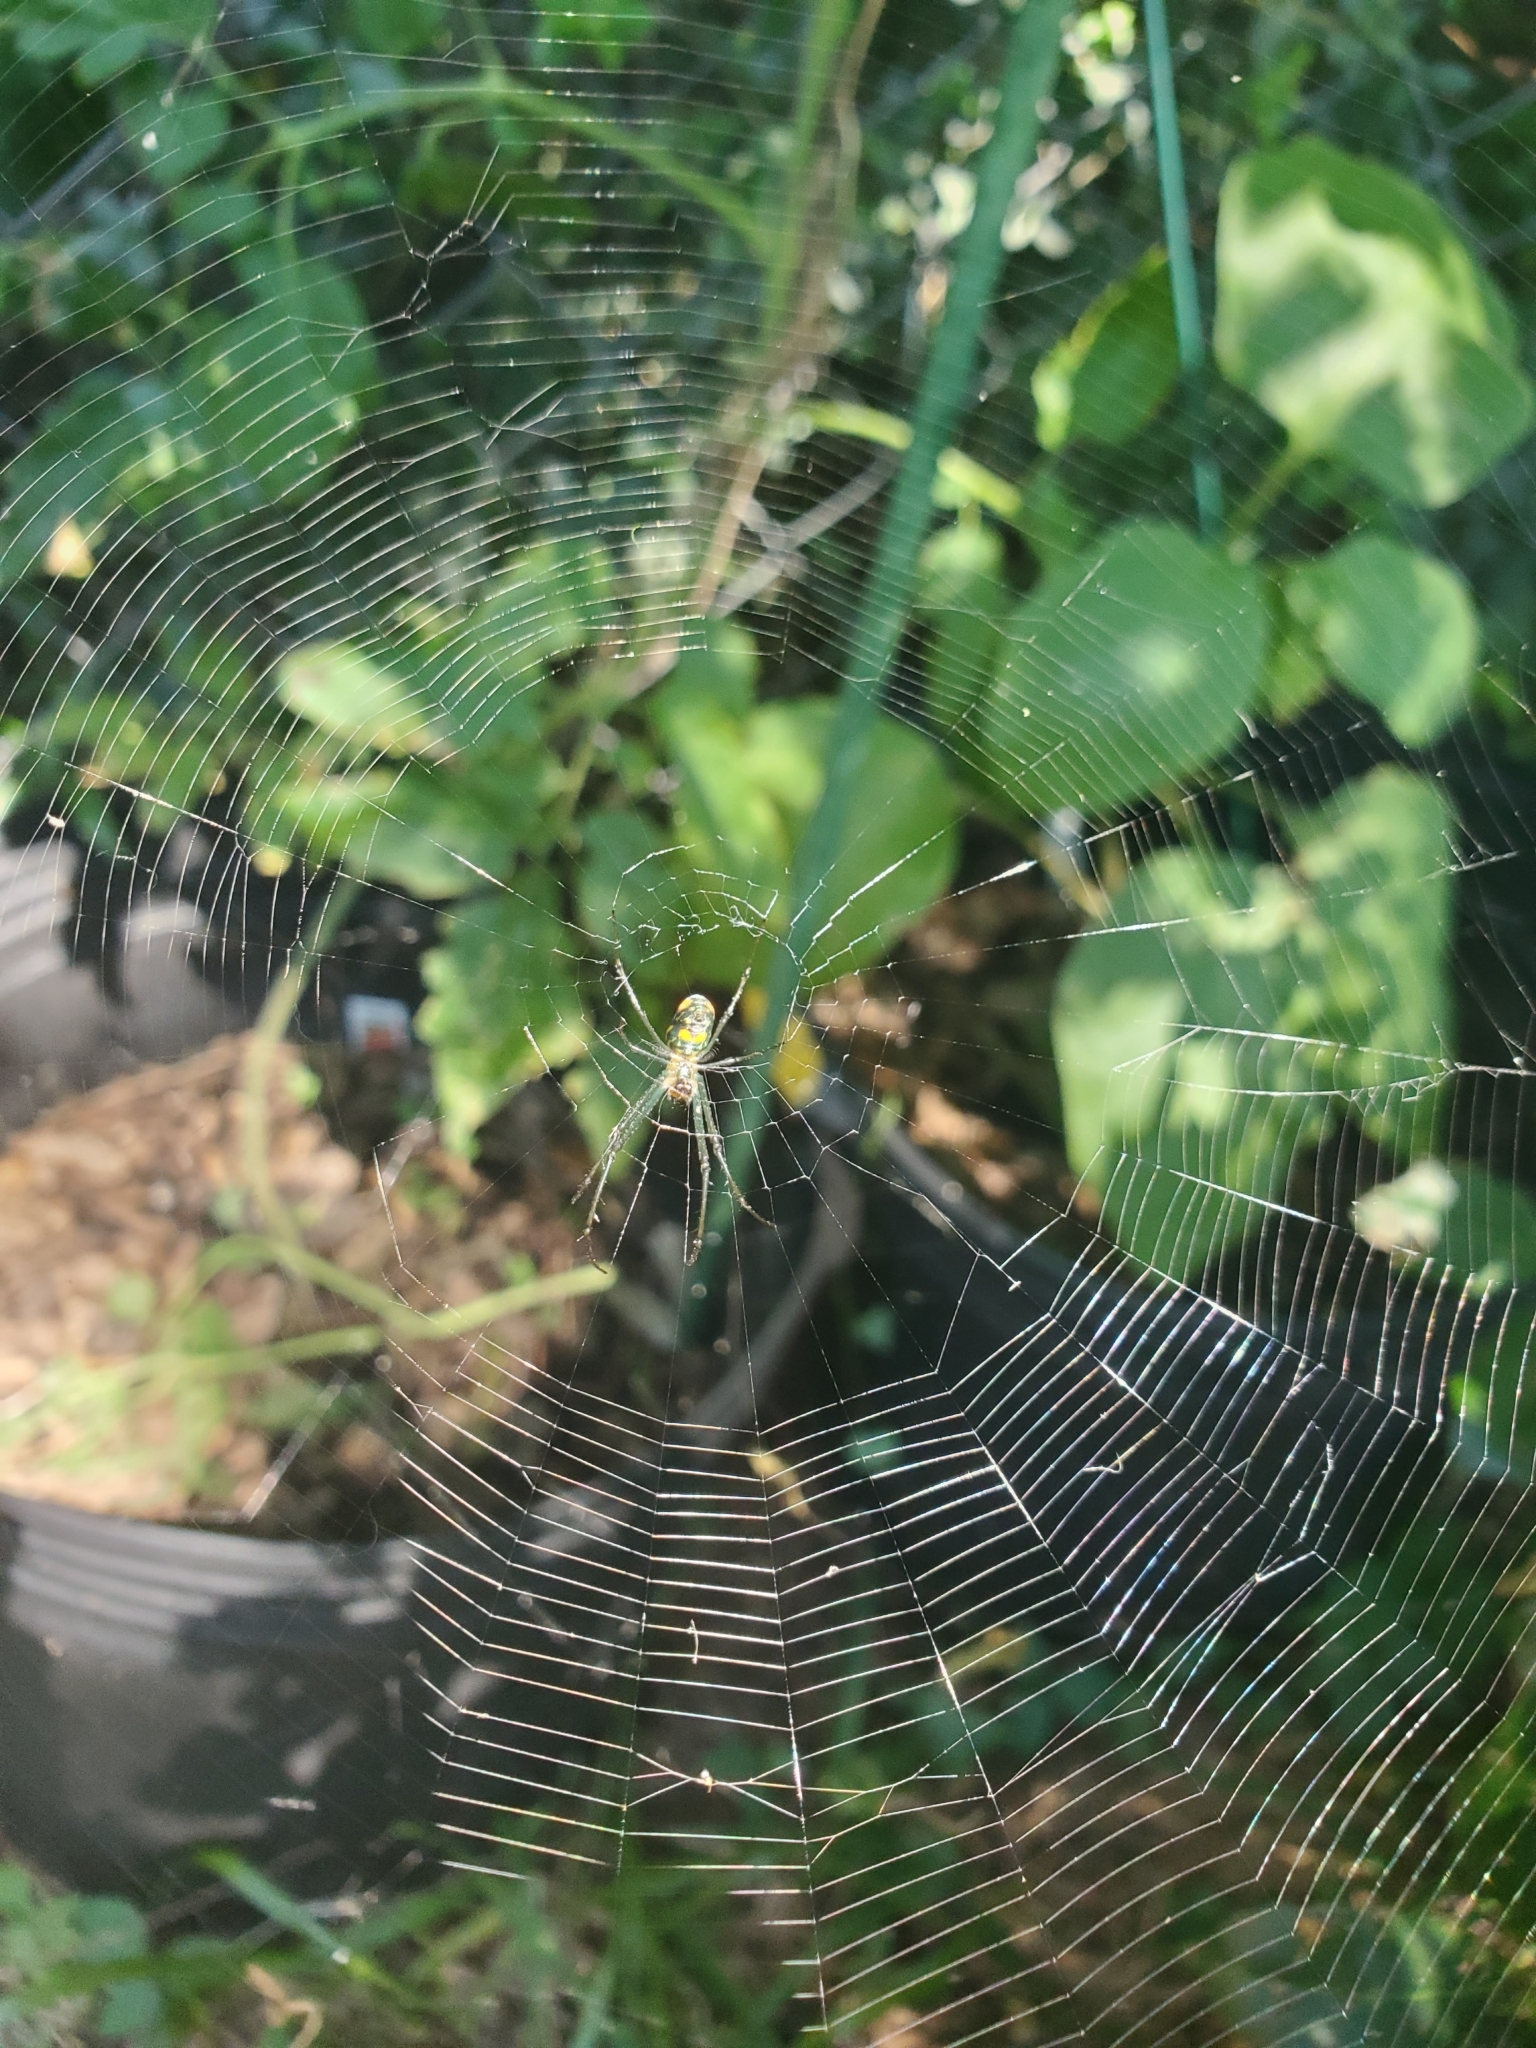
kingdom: Animalia
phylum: Arthropoda
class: Arachnida
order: Araneae
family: Tetragnathidae
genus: Leucauge
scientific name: Leucauge argyrobapta
